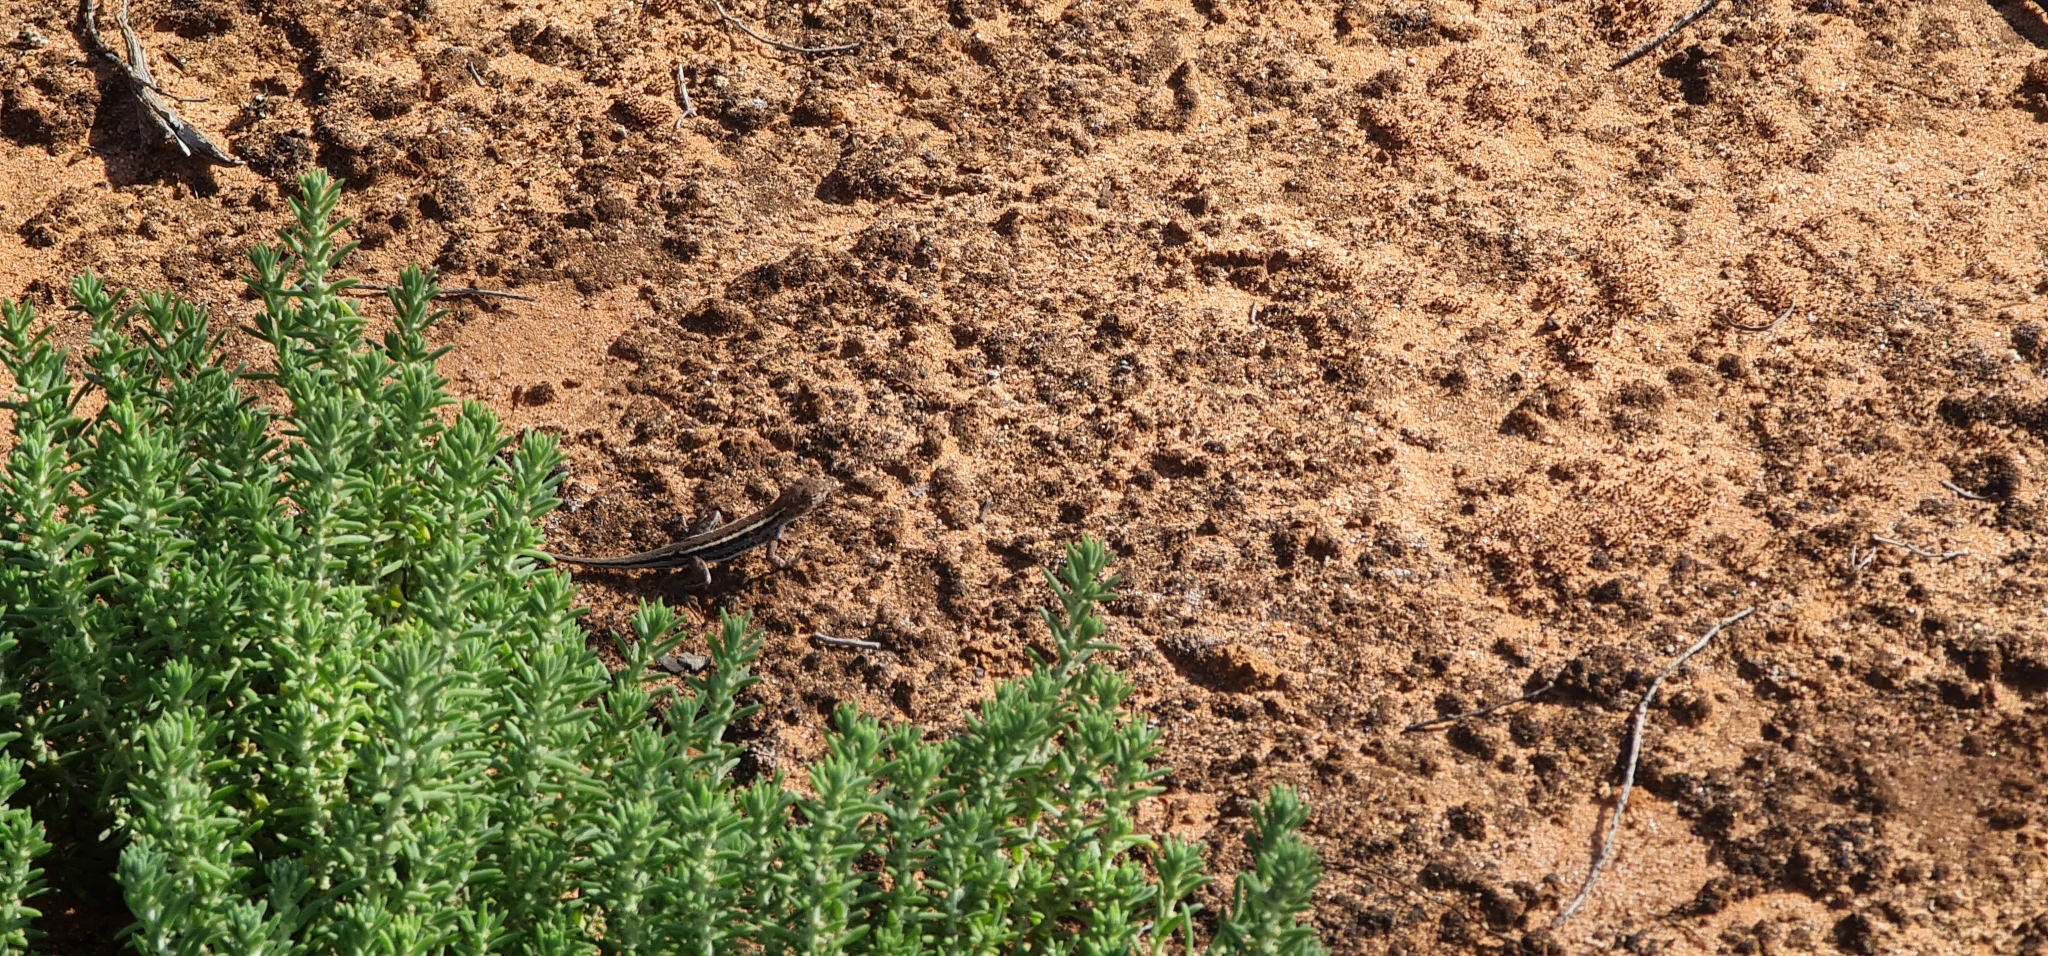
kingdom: Animalia
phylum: Chordata
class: Squamata
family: Agamidae
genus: Ctenophorus
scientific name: Ctenophorus spinodomus
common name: Eastern mallee dragon
